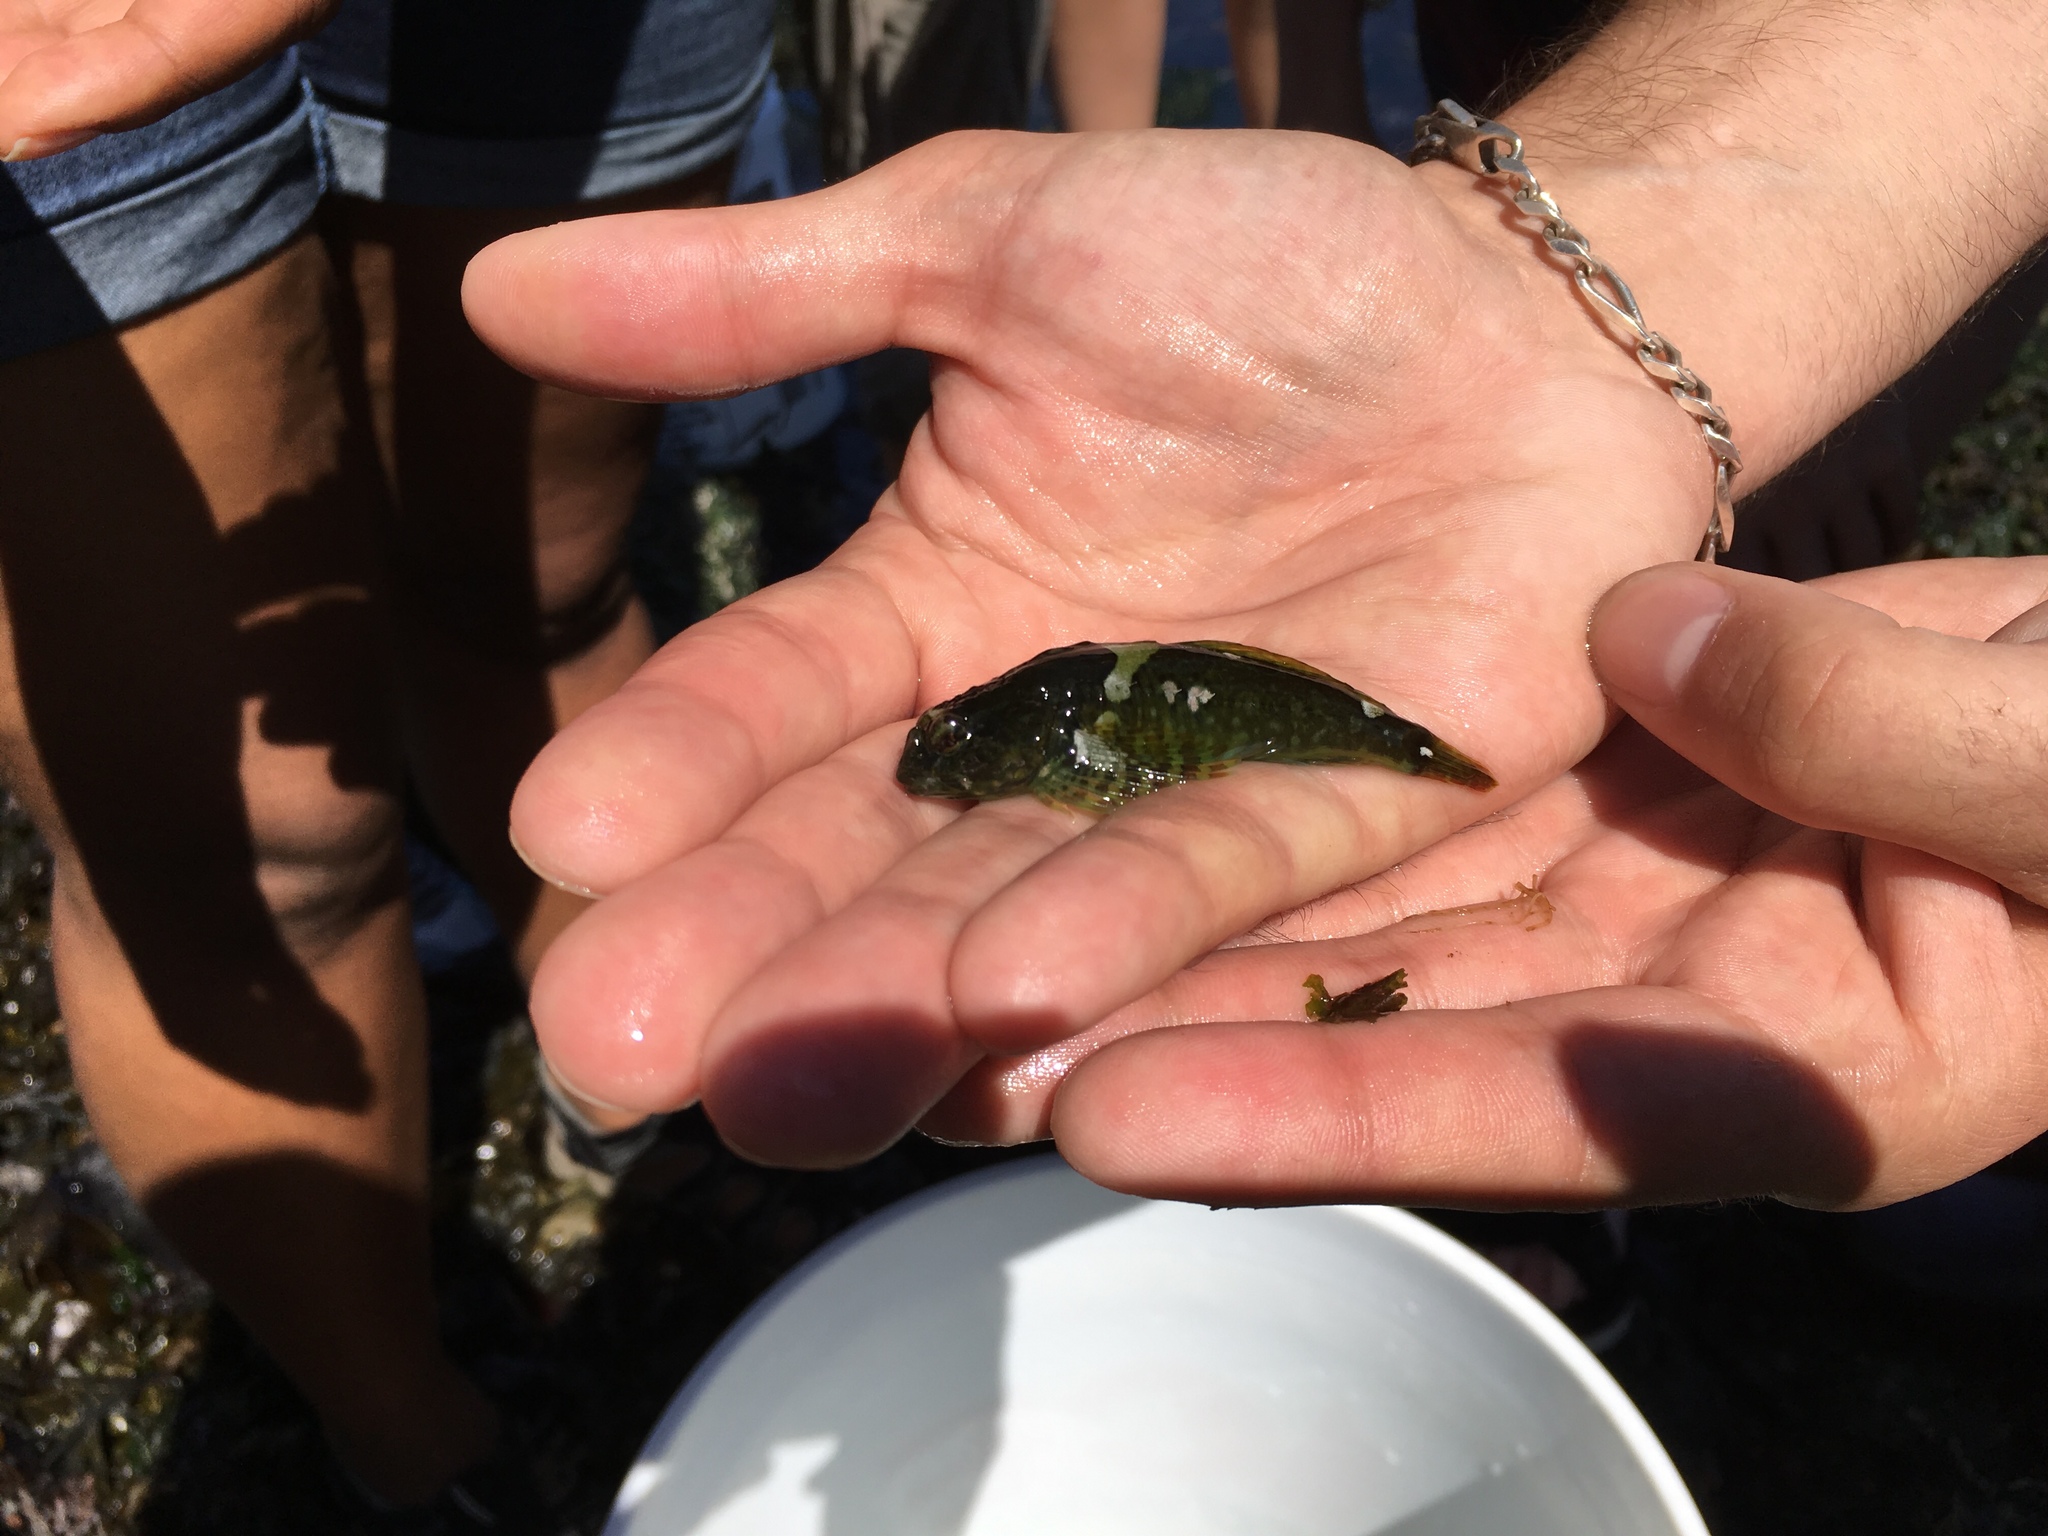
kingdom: Animalia
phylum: Chordata
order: Scorpaeniformes
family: Cottidae
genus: Oligocottus
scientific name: Oligocottus maculosus
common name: Tidepool sculpin
